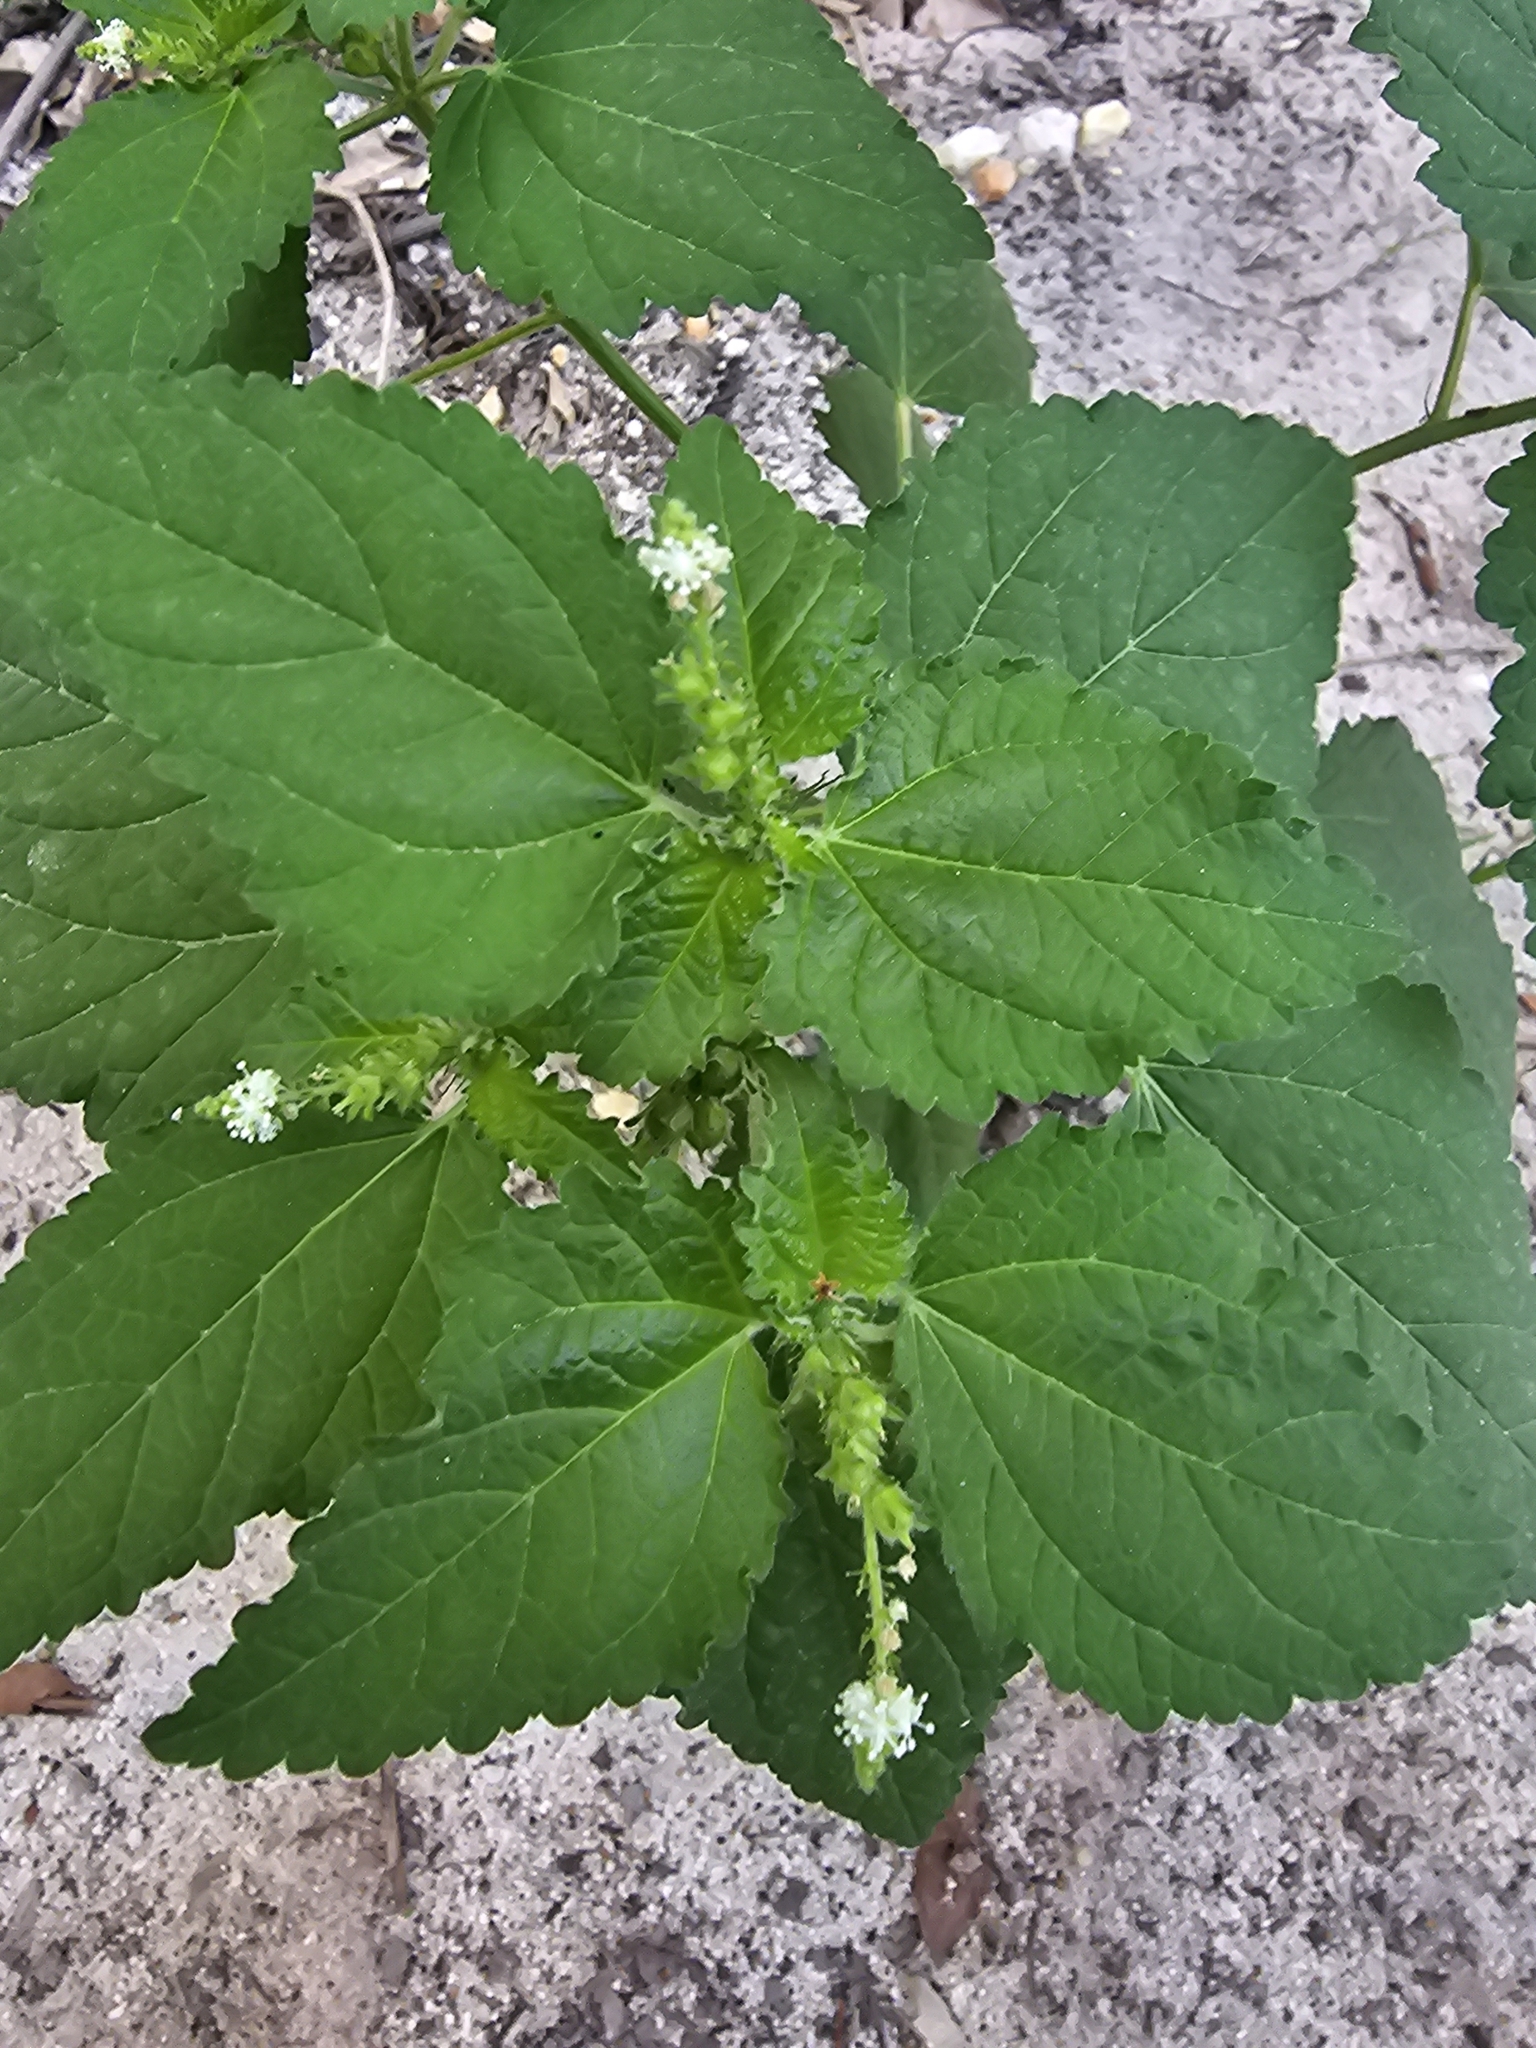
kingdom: Plantae
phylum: Tracheophyta
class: Magnoliopsida
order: Malpighiales
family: Euphorbiaceae
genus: Croton
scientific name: Croton hirtus
